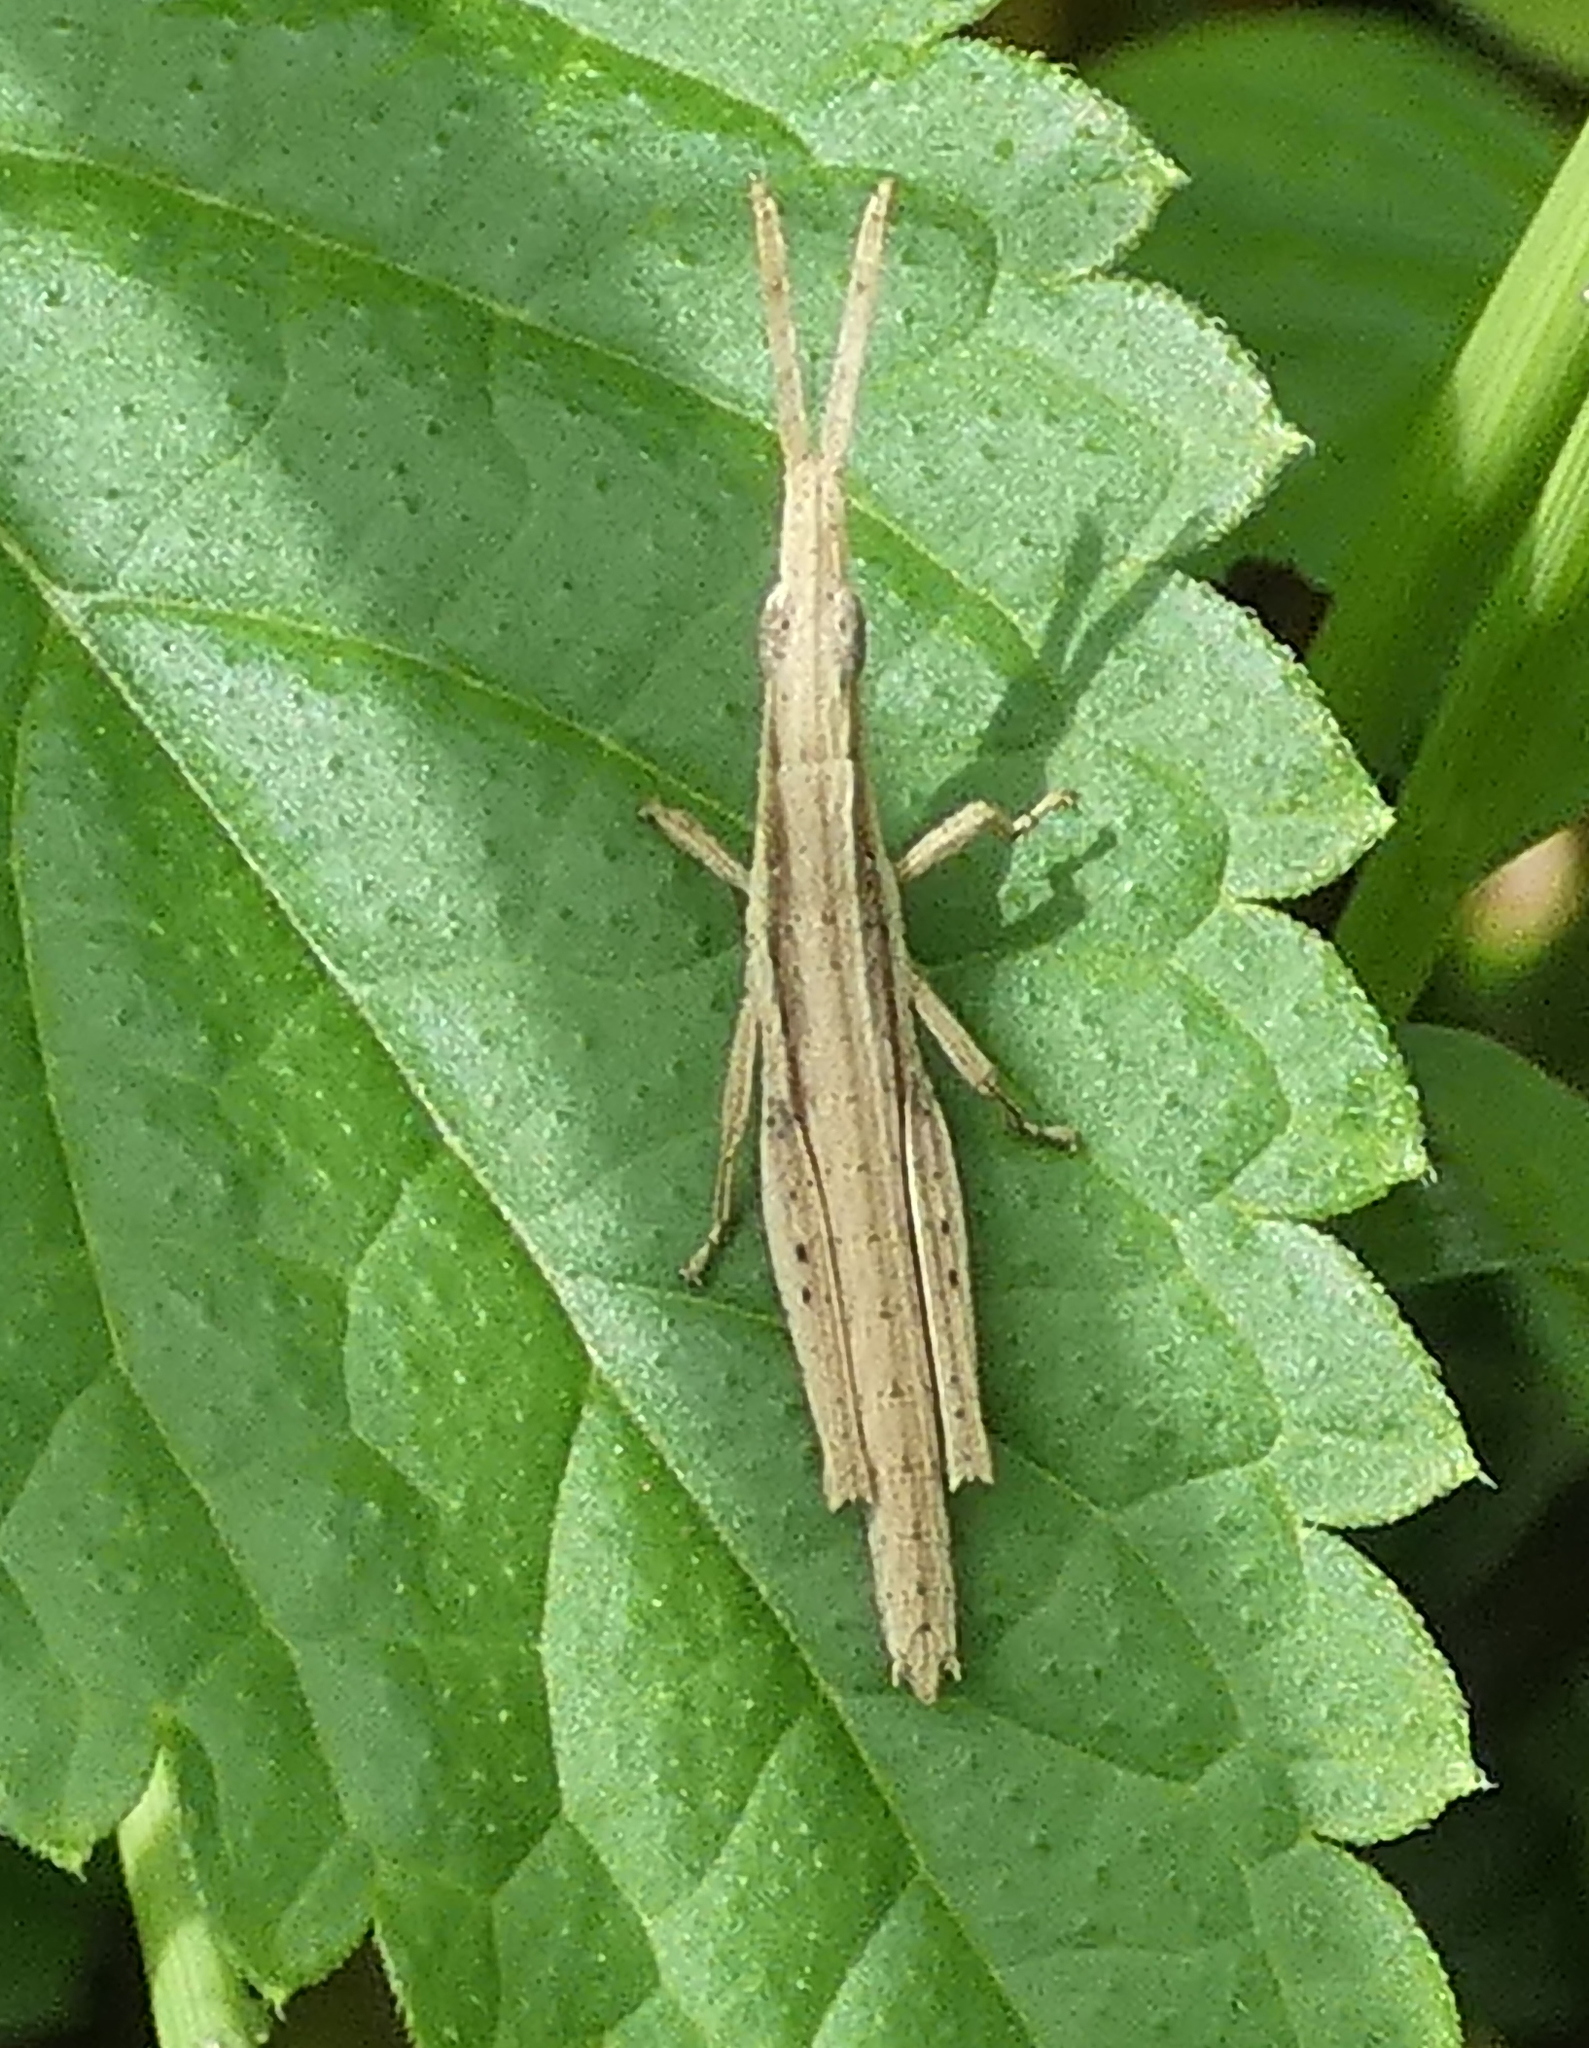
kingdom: Animalia
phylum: Arthropoda
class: Insecta
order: Orthoptera
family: Pyrgomorphidae
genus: Algete
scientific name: Algete brunneri
